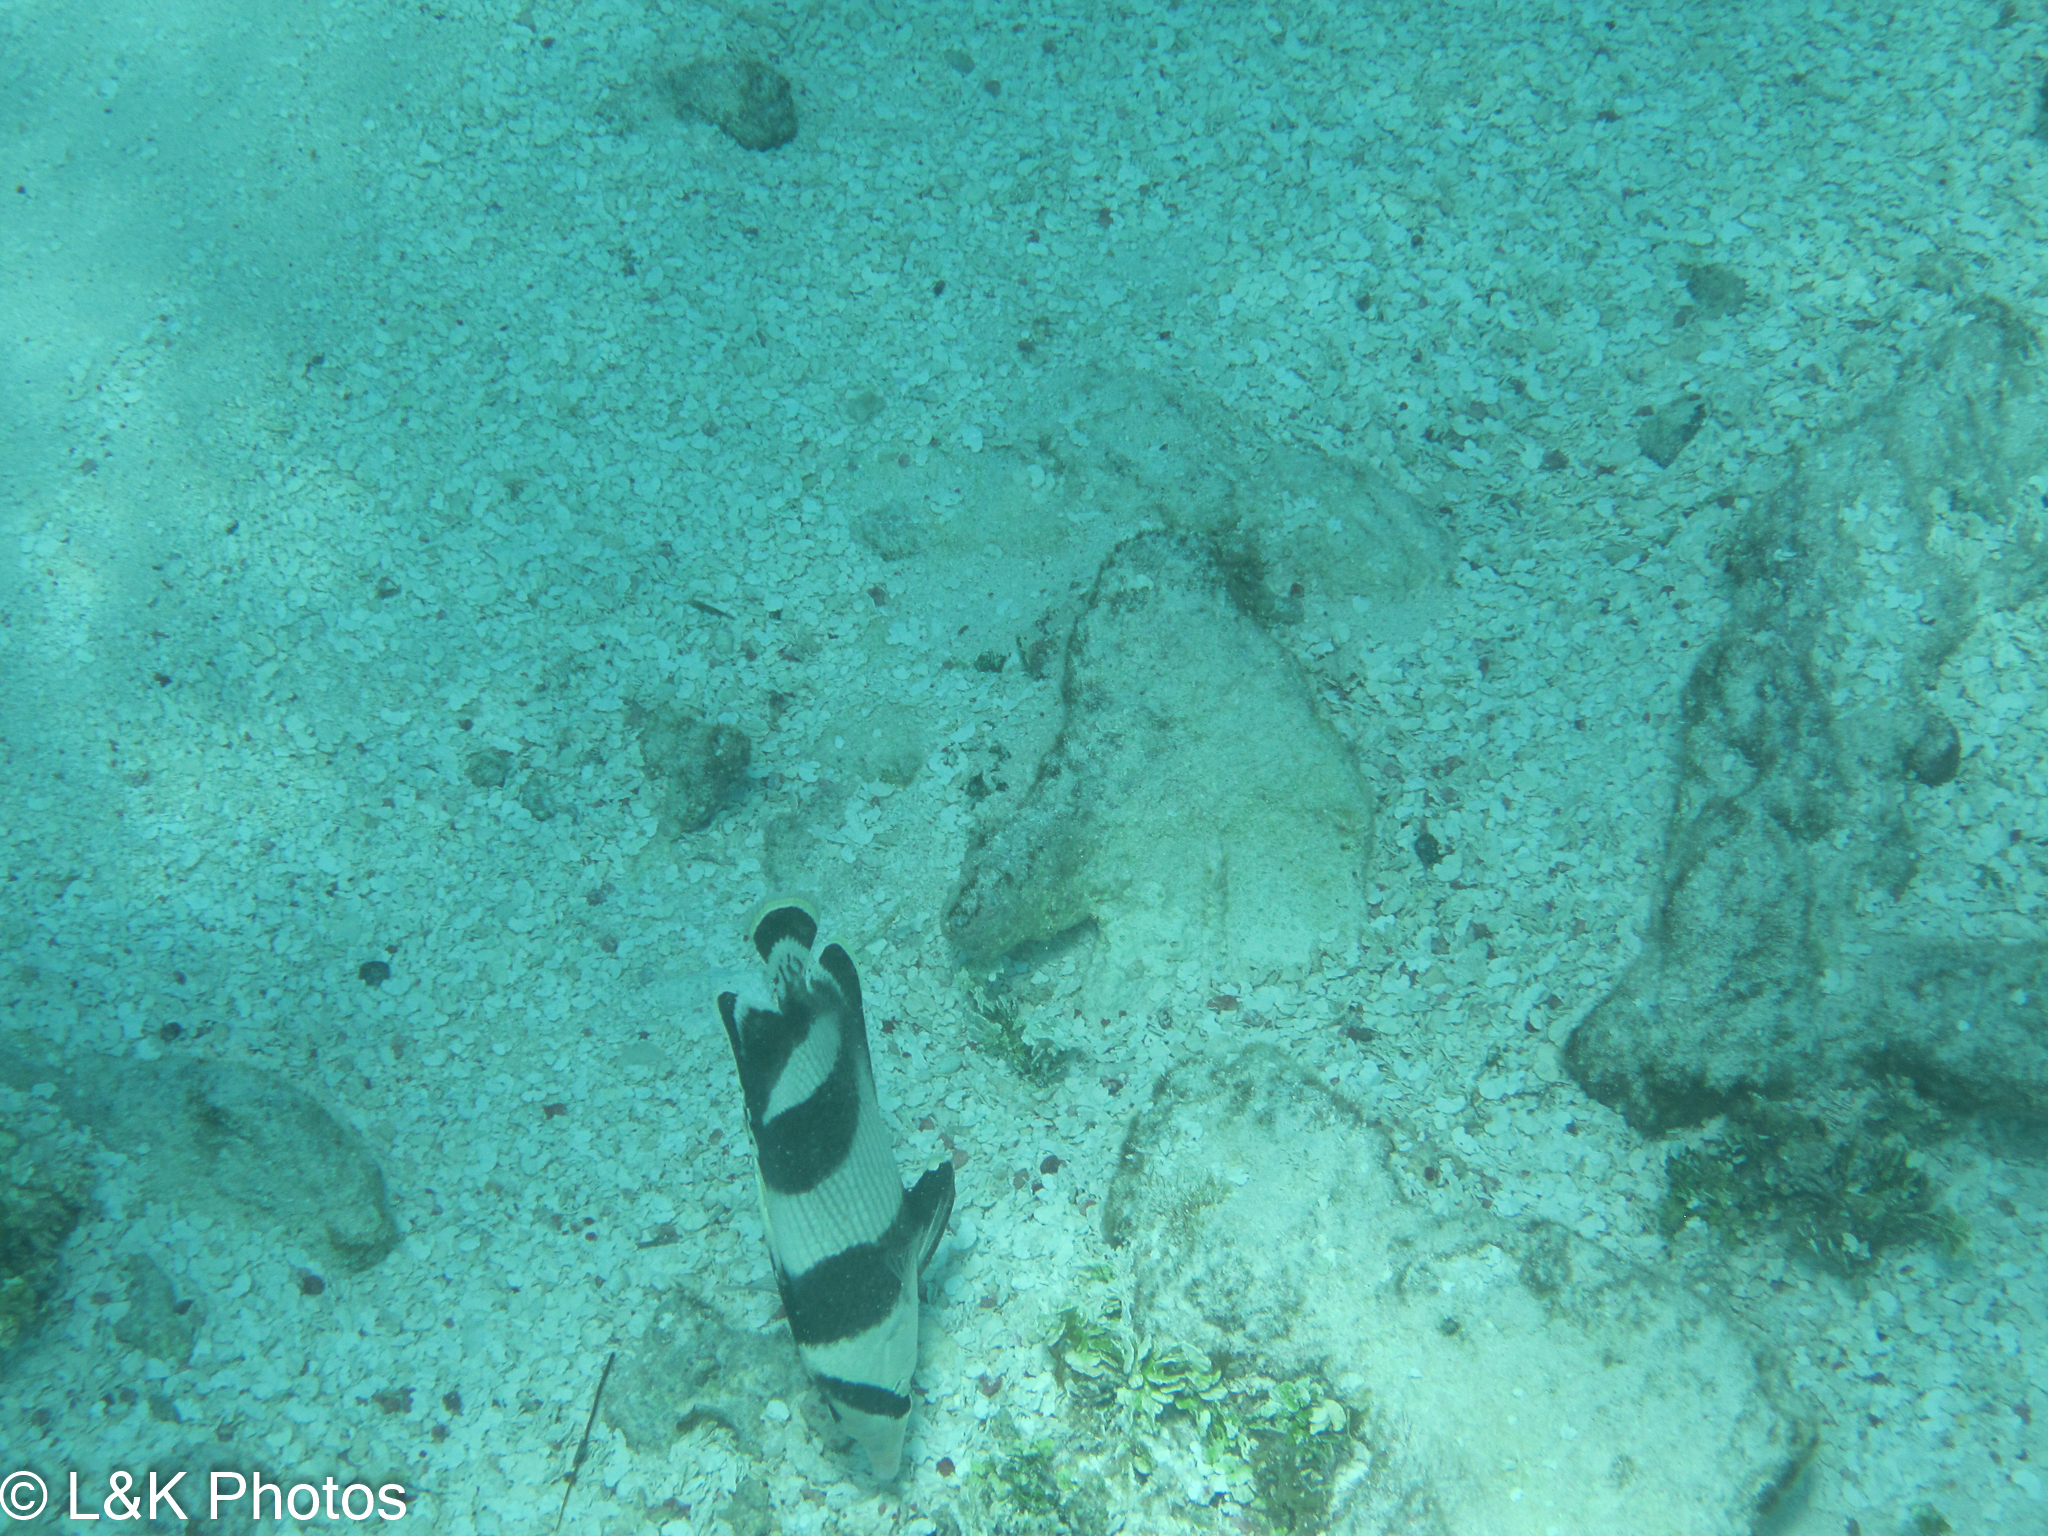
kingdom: Animalia
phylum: Chordata
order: Perciformes
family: Chaetodontidae
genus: Chaetodon
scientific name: Chaetodon striatus
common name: Banded butterflyfish
